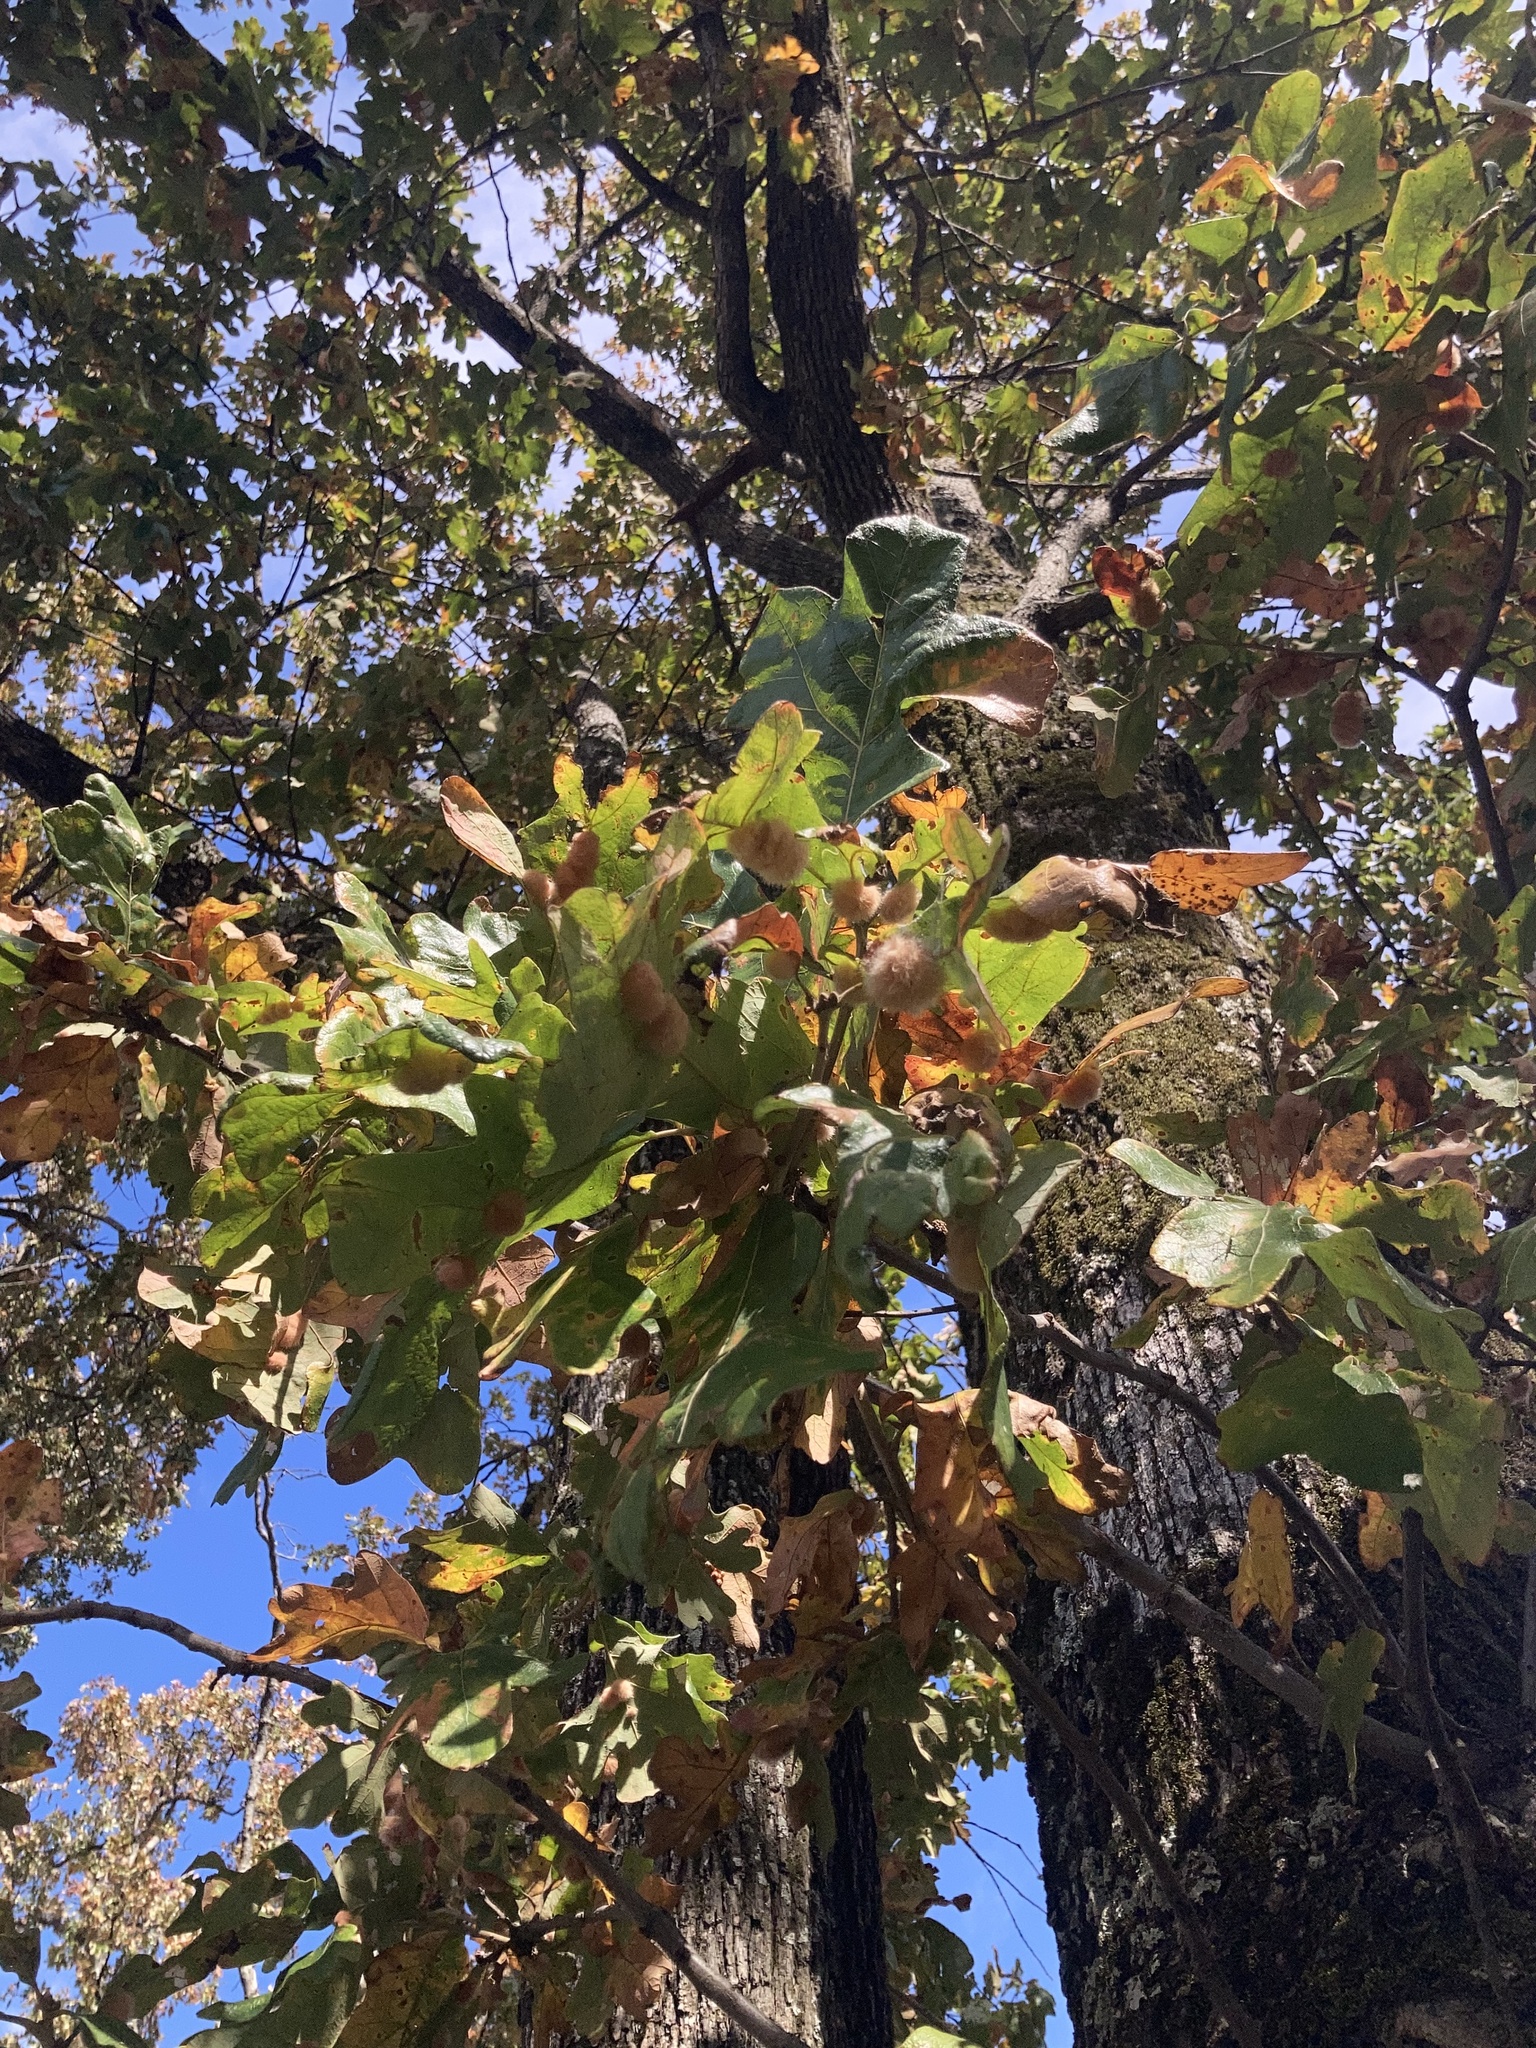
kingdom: Plantae
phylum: Tracheophyta
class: Magnoliopsida
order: Fagales
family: Fagaceae
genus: Quercus
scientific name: Quercus stellata
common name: Post oak
